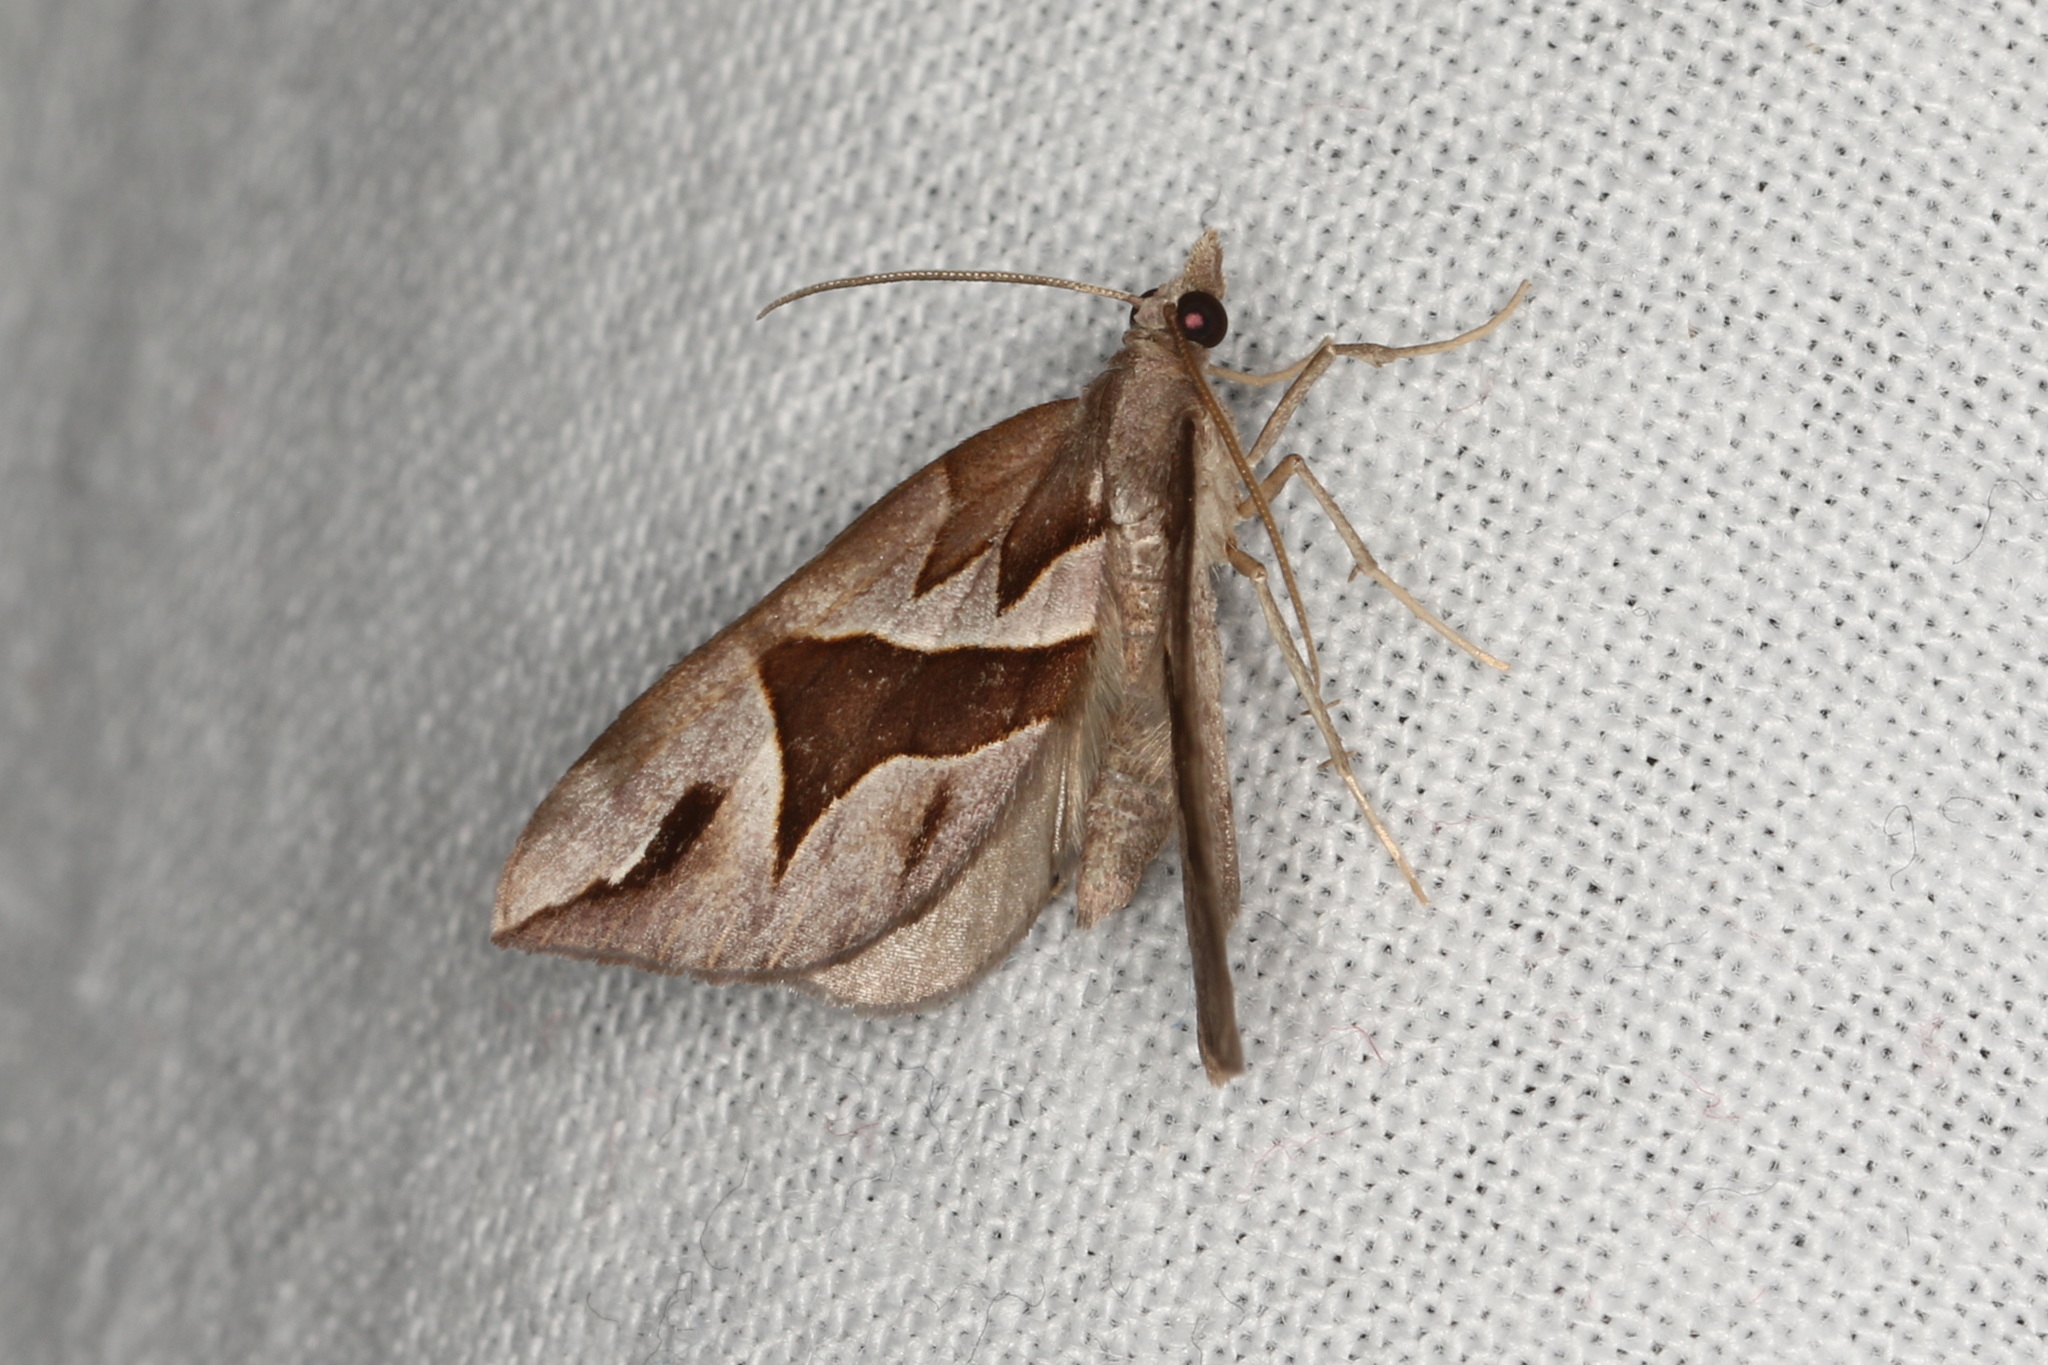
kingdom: Animalia
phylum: Arthropoda
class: Insecta
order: Lepidoptera
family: Geometridae
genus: Chaetolopha
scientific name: Chaetolopha oxyntis
